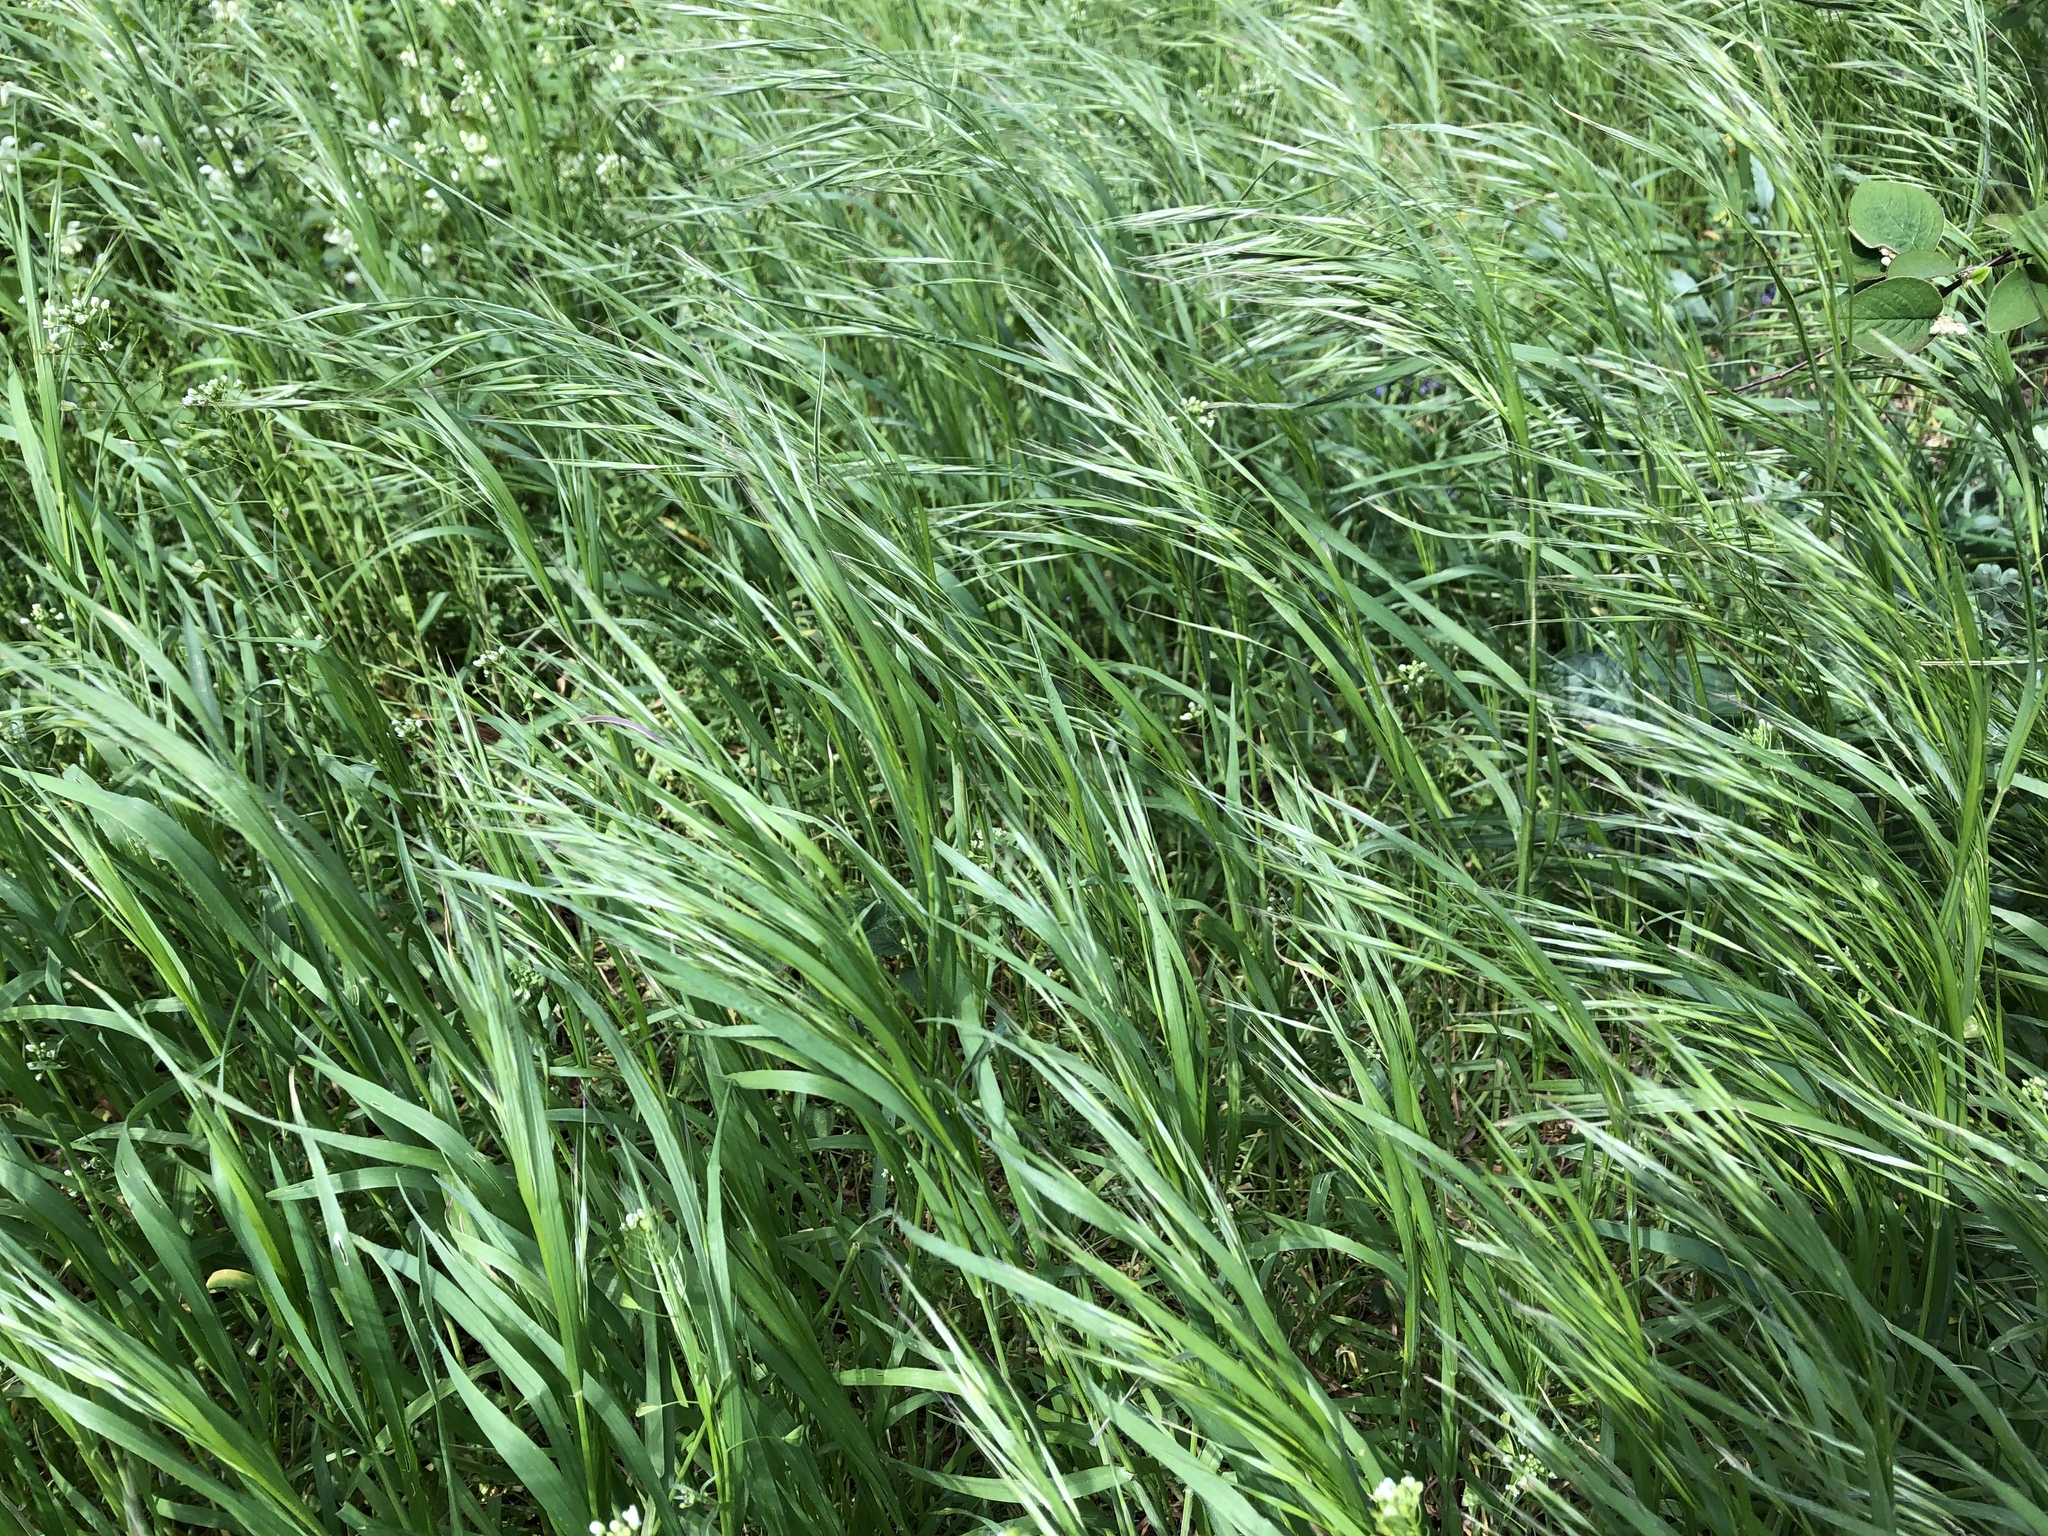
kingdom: Plantae
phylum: Tracheophyta
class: Liliopsida
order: Poales
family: Poaceae
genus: Bromus
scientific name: Bromus sterilis
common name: Poverty brome
